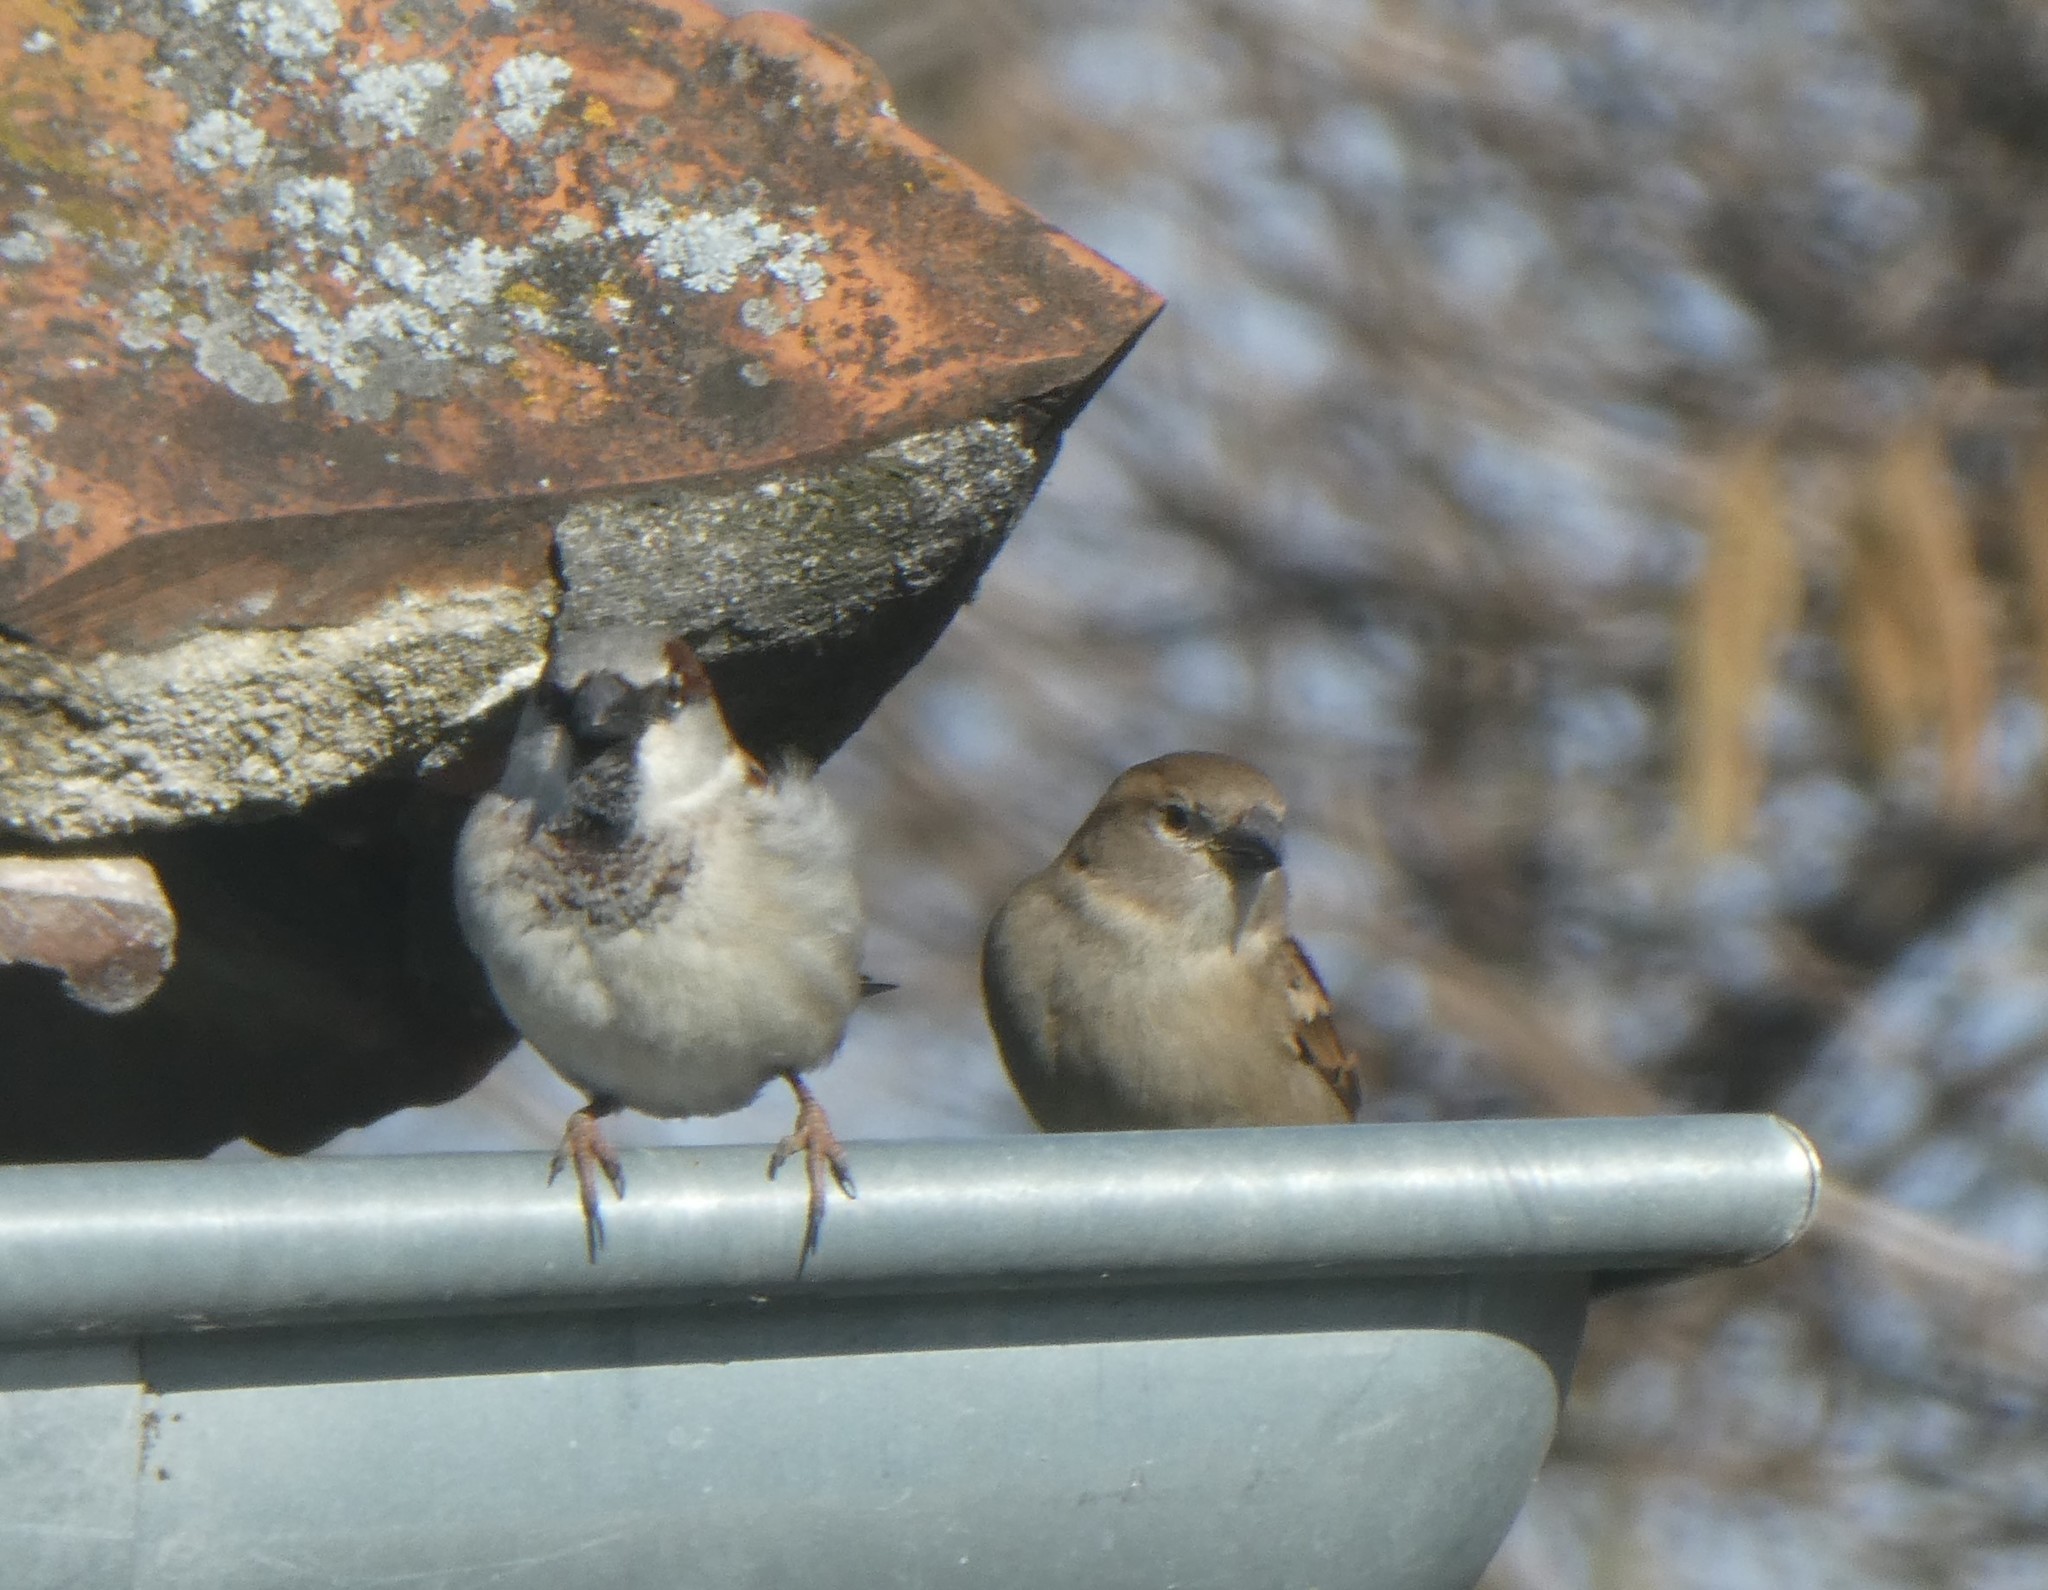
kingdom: Animalia
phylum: Chordata
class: Aves
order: Passeriformes
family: Passeridae
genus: Passer
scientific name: Passer domesticus
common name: House sparrow
